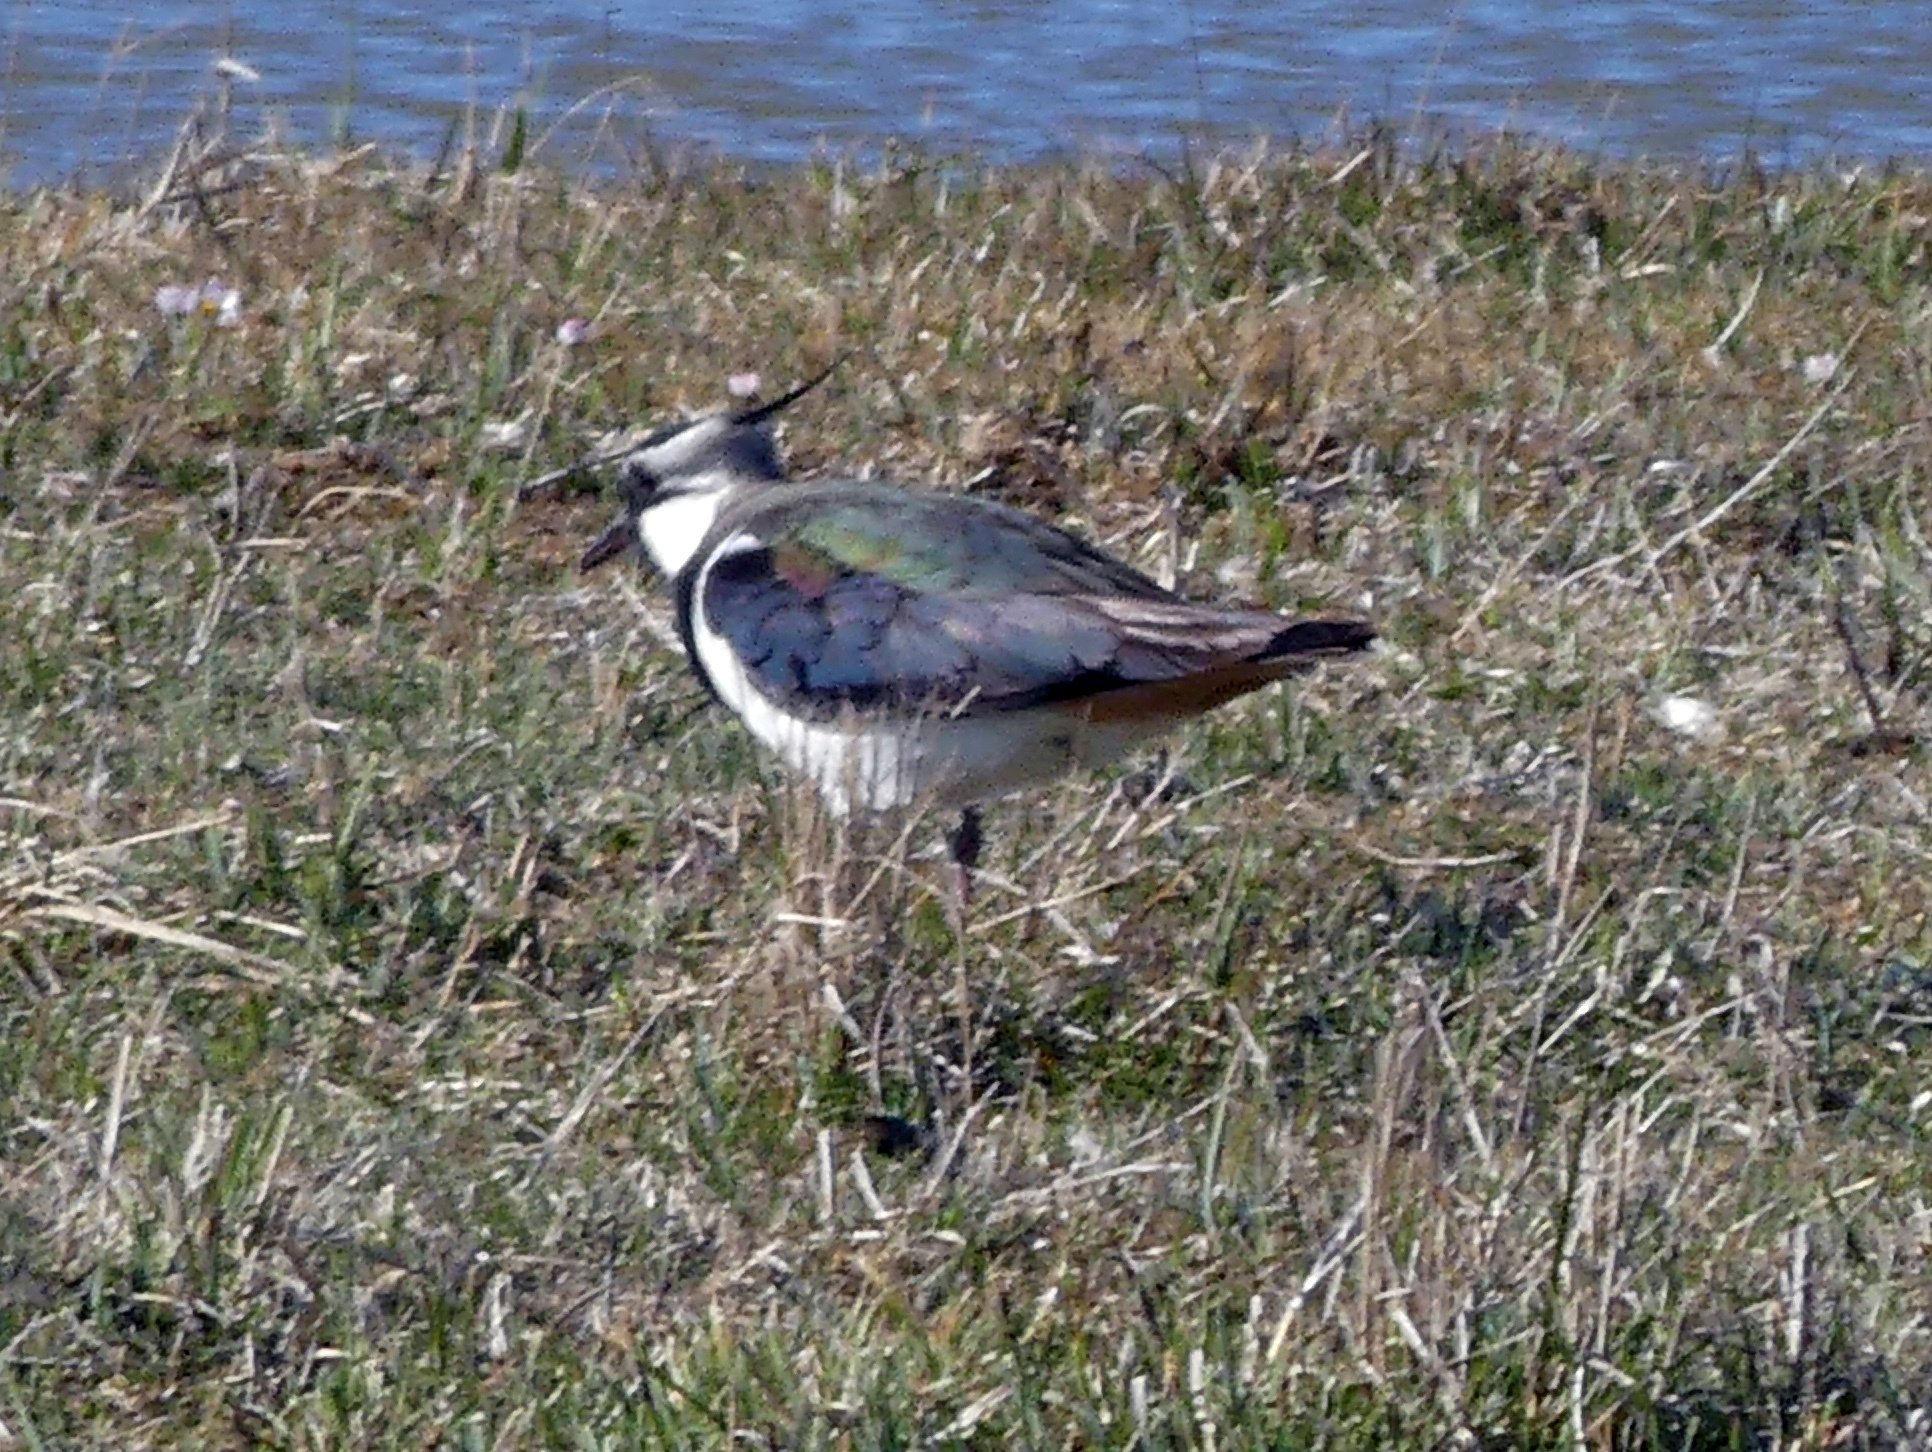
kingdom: Animalia
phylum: Chordata
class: Aves
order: Charadriiformes
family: Charadriidae
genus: Vanellus
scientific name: Vanellus vanellus
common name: Northern lapwing
